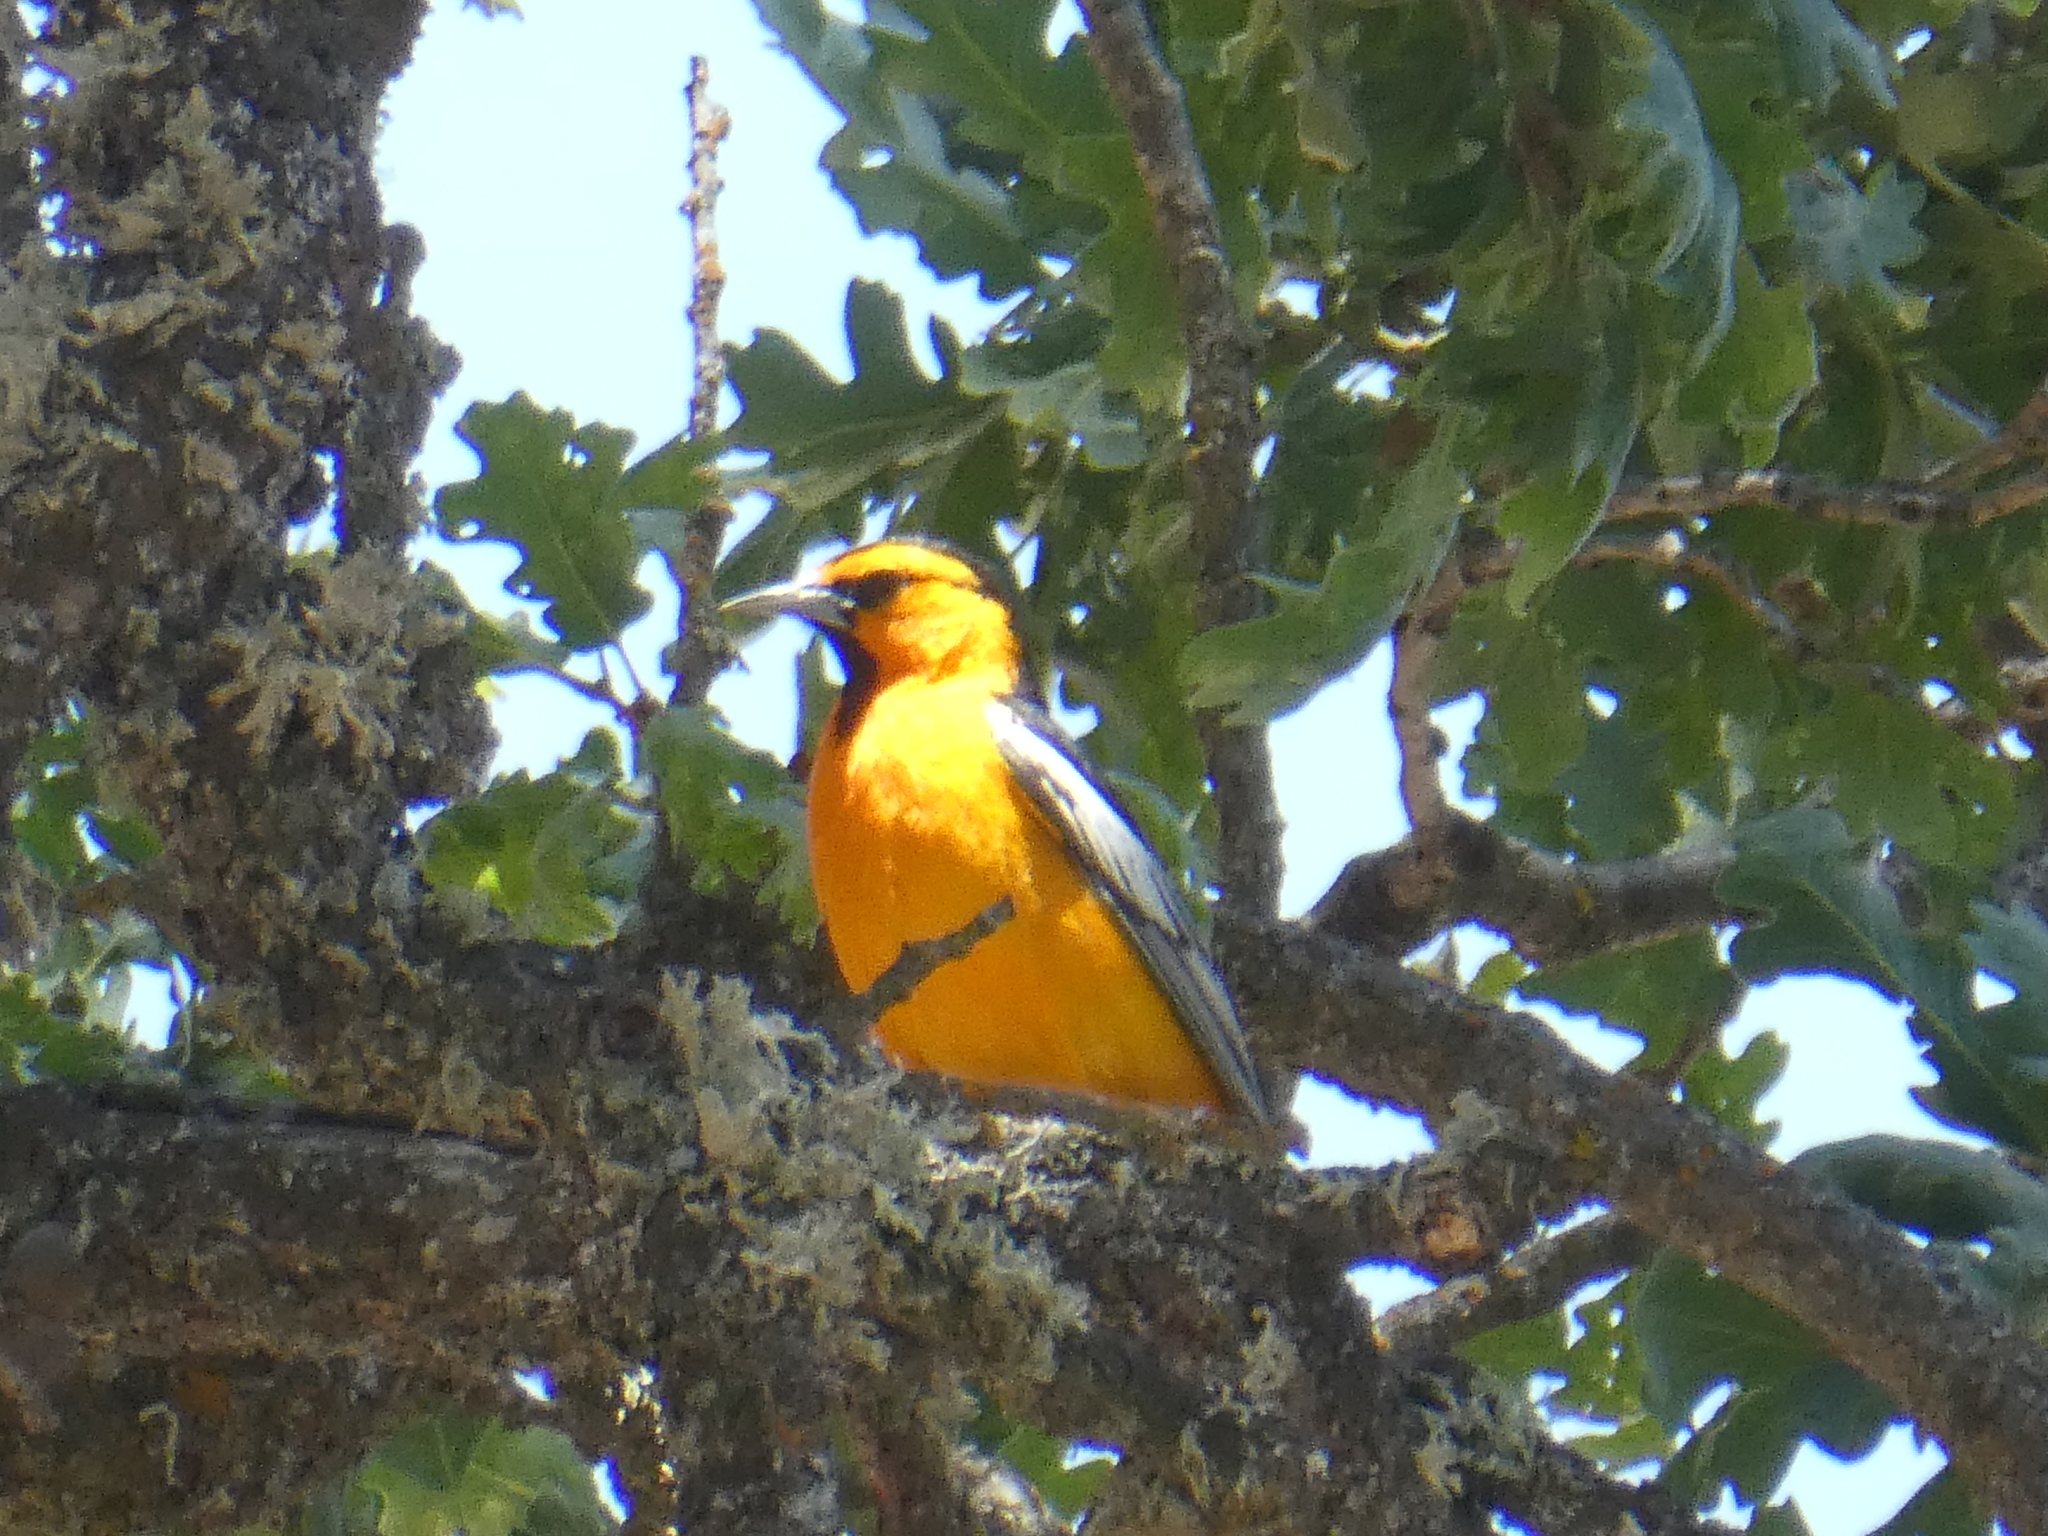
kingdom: Animalia
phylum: Chordata
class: Aves
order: Passeriformes
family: Icteridae
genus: Icterus
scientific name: Icterus bullockii
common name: Bullock's oriole
